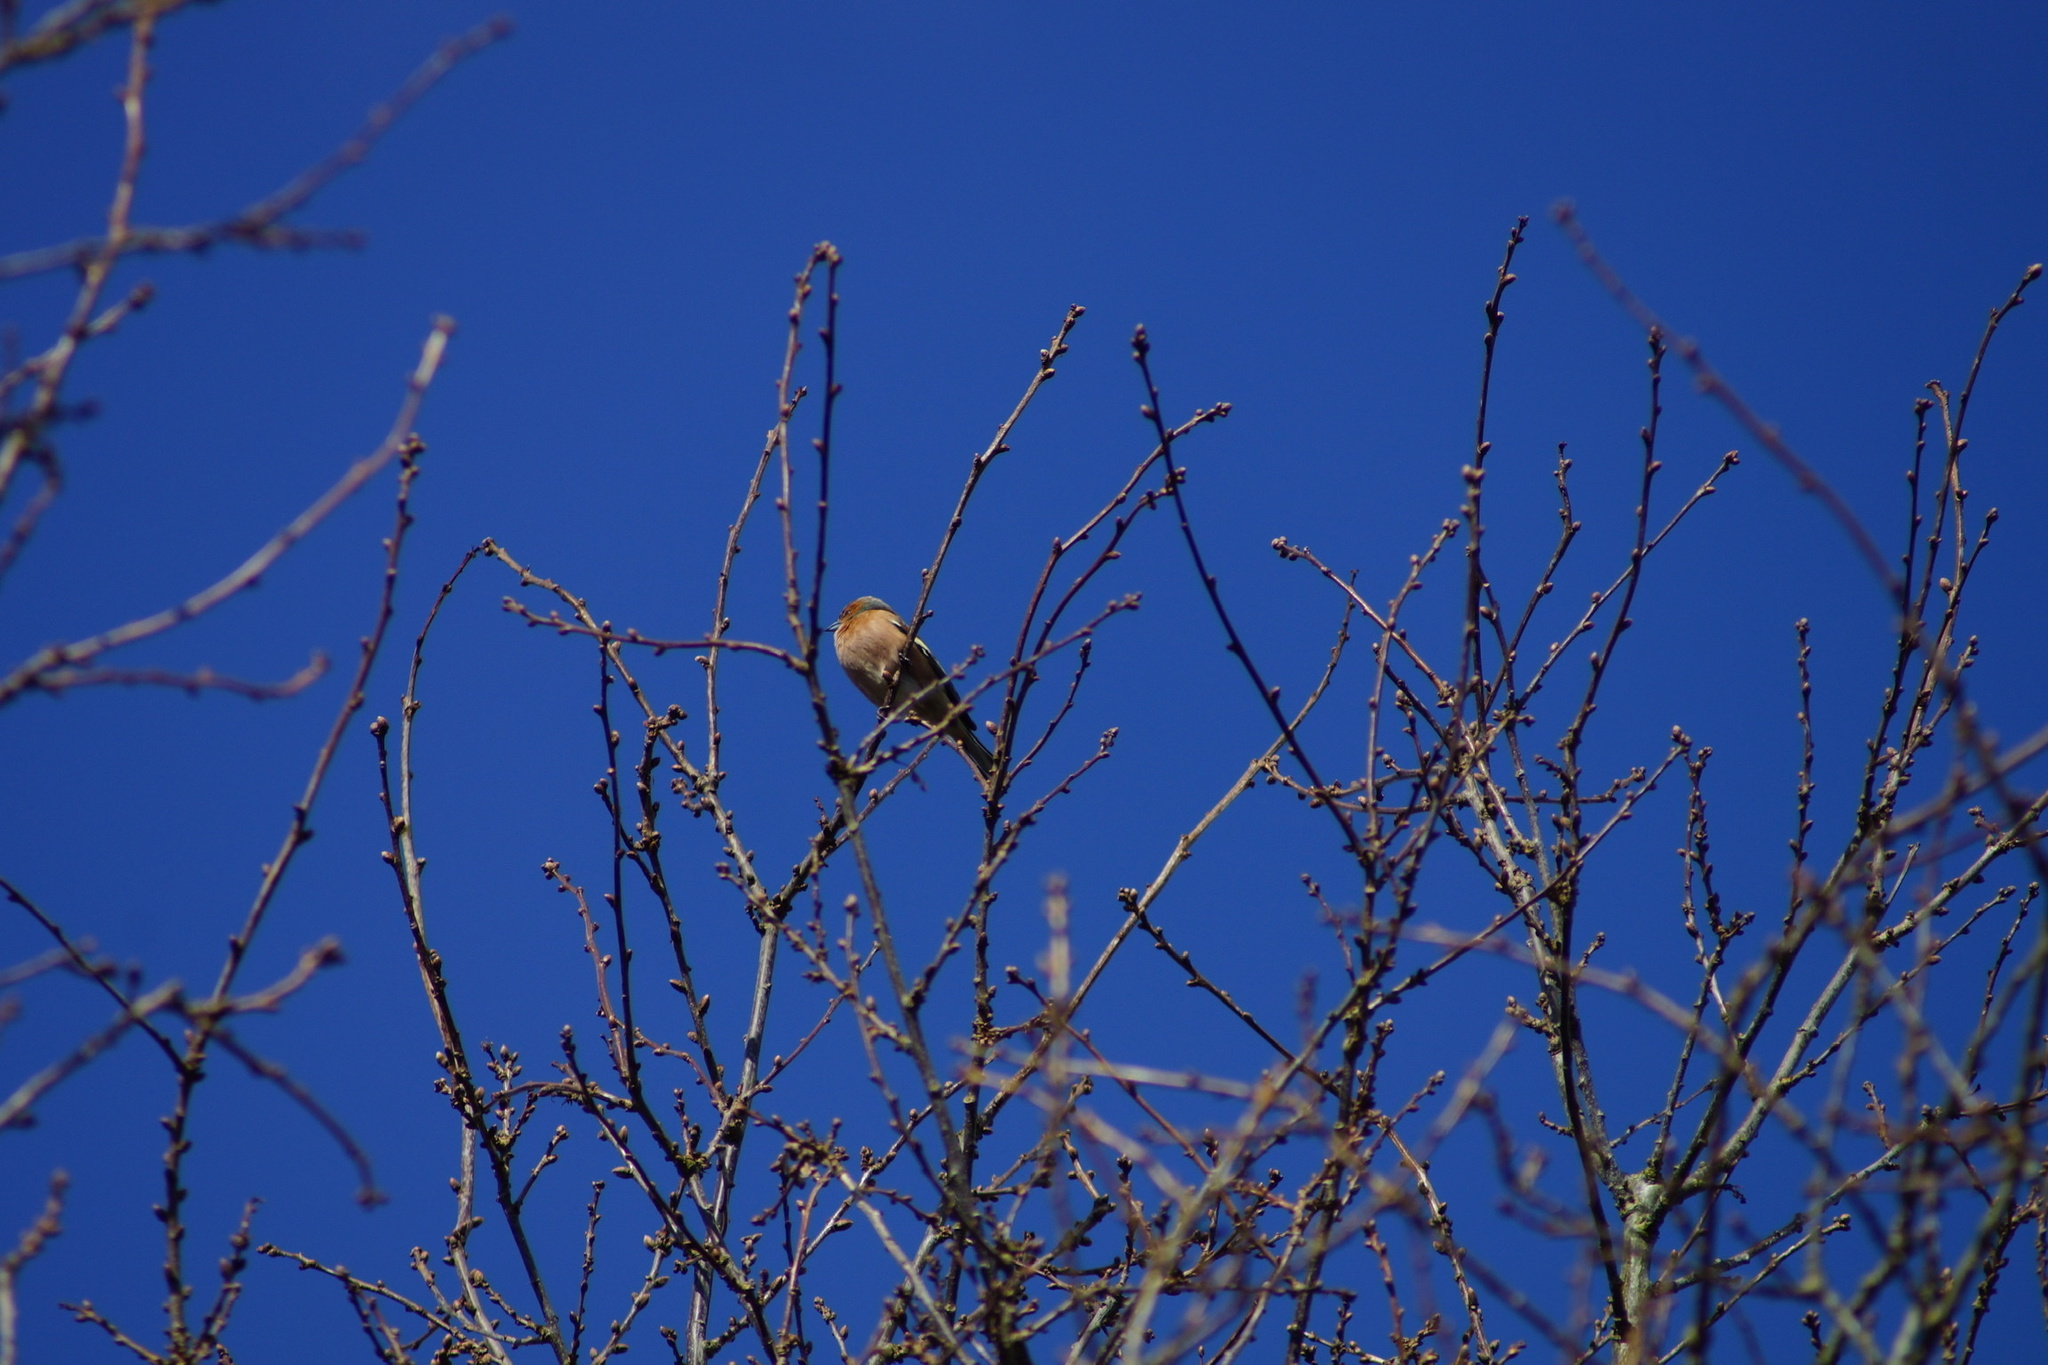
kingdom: Animalia
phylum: Chordata
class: Aves
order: Passeriformes
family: Fringillidae
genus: Fringilla
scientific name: Fringilla coelebs
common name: Common chaffinch
